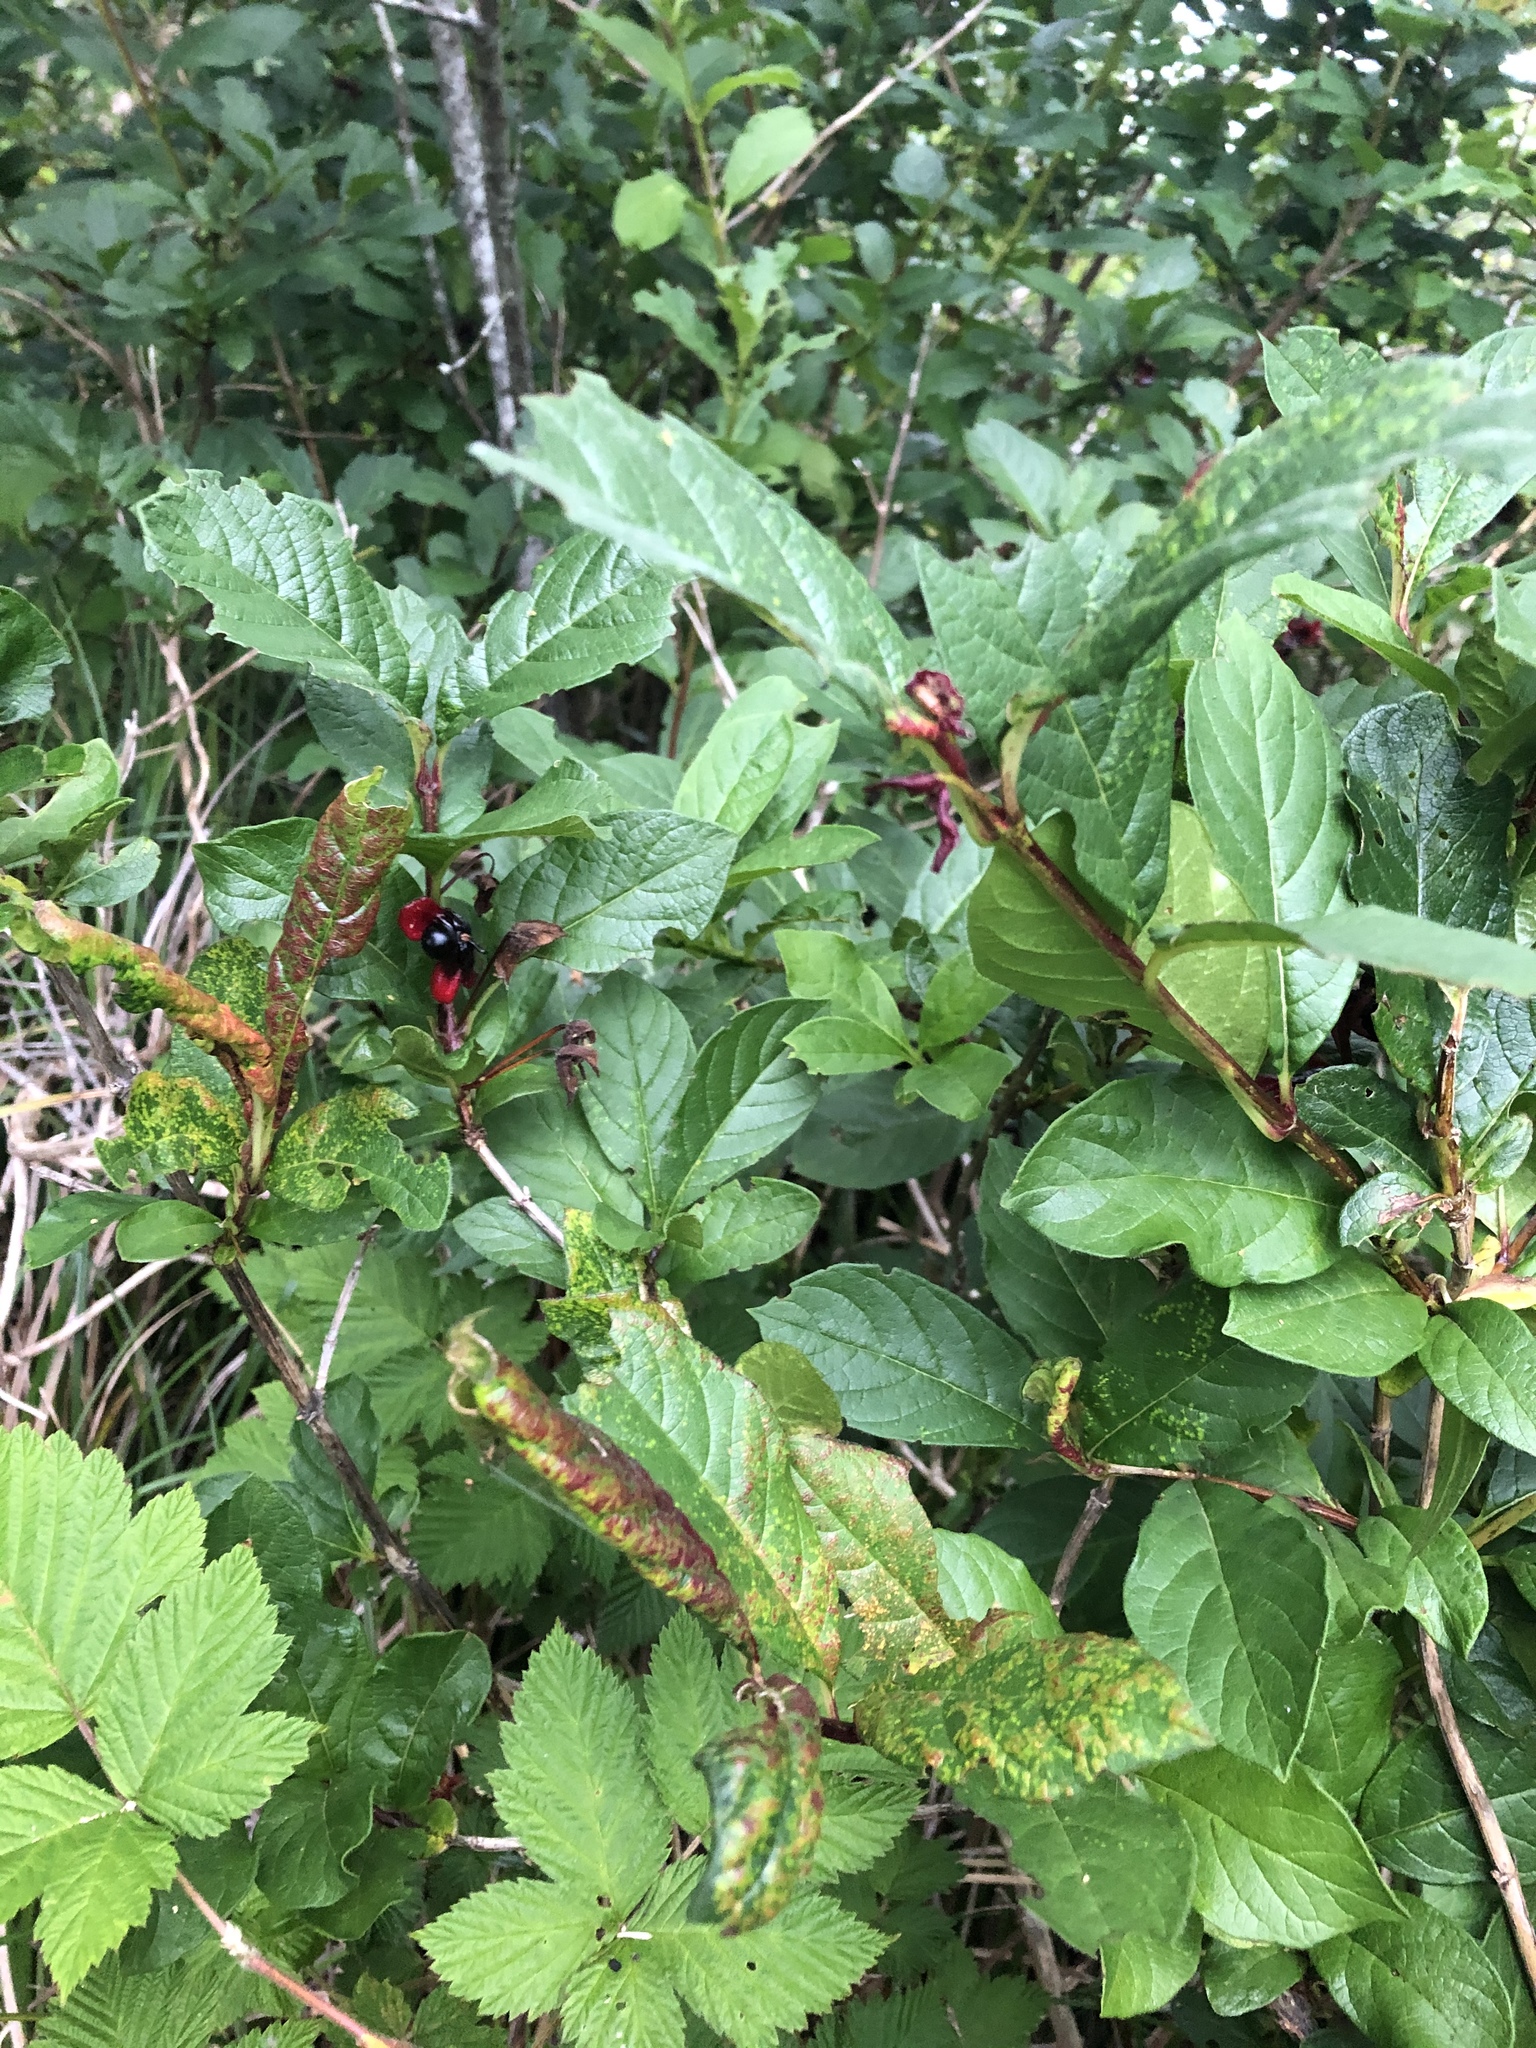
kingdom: Plantae
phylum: Tracheophyta
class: Magnoliopsida
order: Dipsacales
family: Caprifoliaceae
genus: Lonicera
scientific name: Lonicera involucrata
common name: Californian honeysuckle
